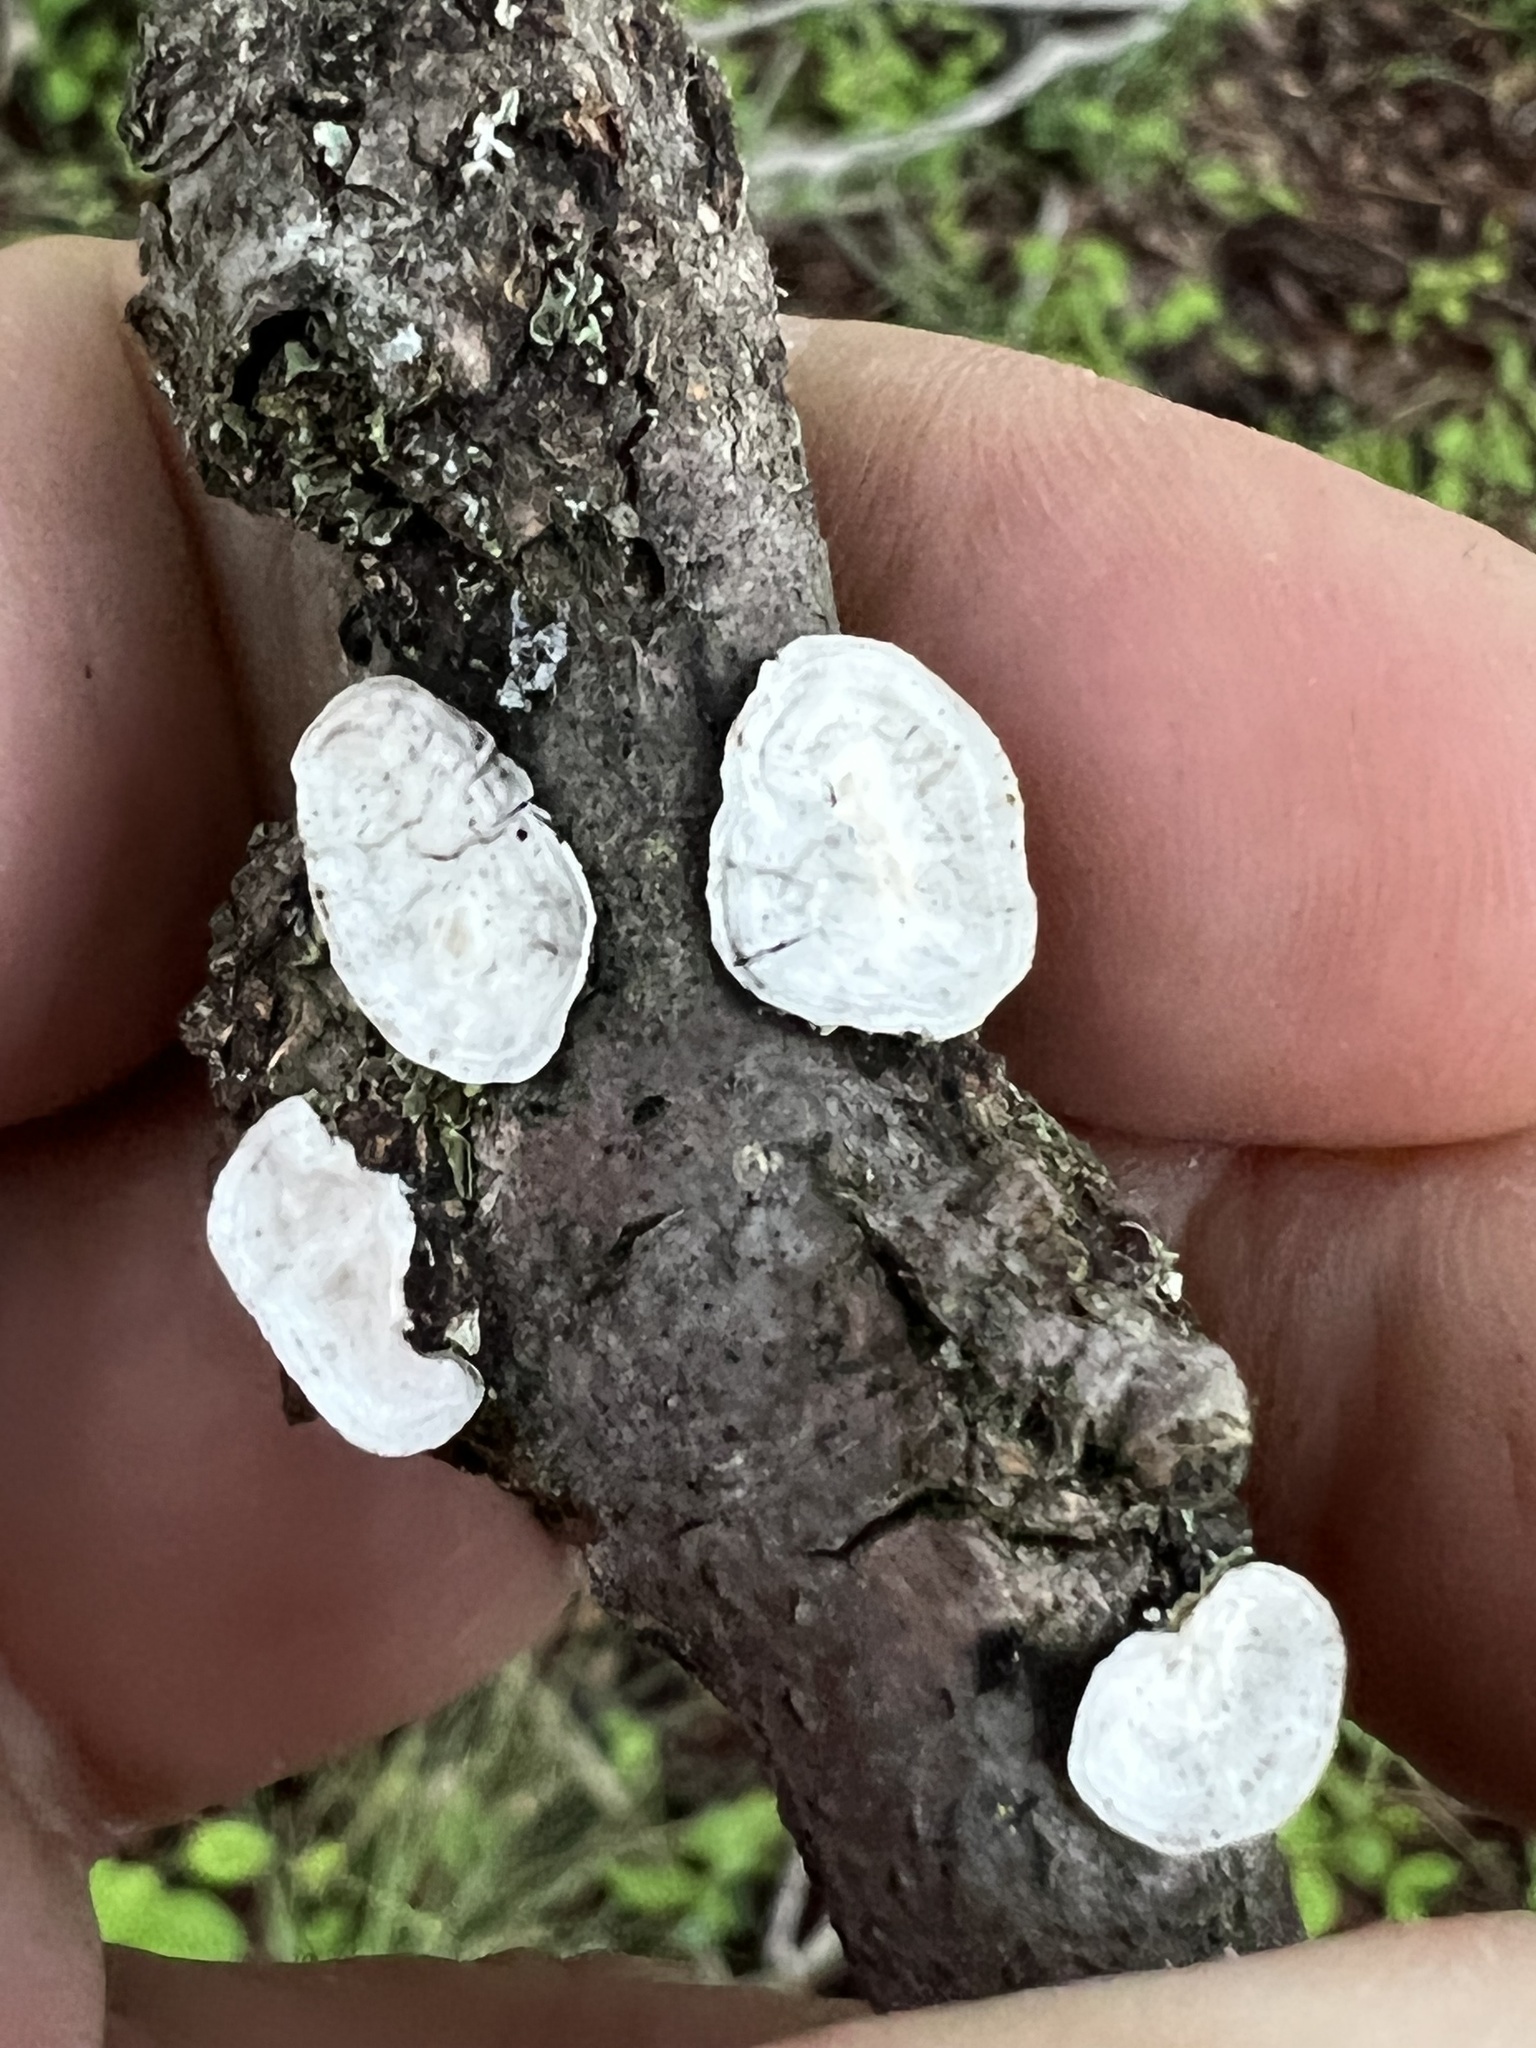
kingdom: Fungi
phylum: Basidiomycota
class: Agaricomycetes
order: Polyporales
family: Polyporaceae
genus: Poronidulus
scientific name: Poronidulus conchifer
